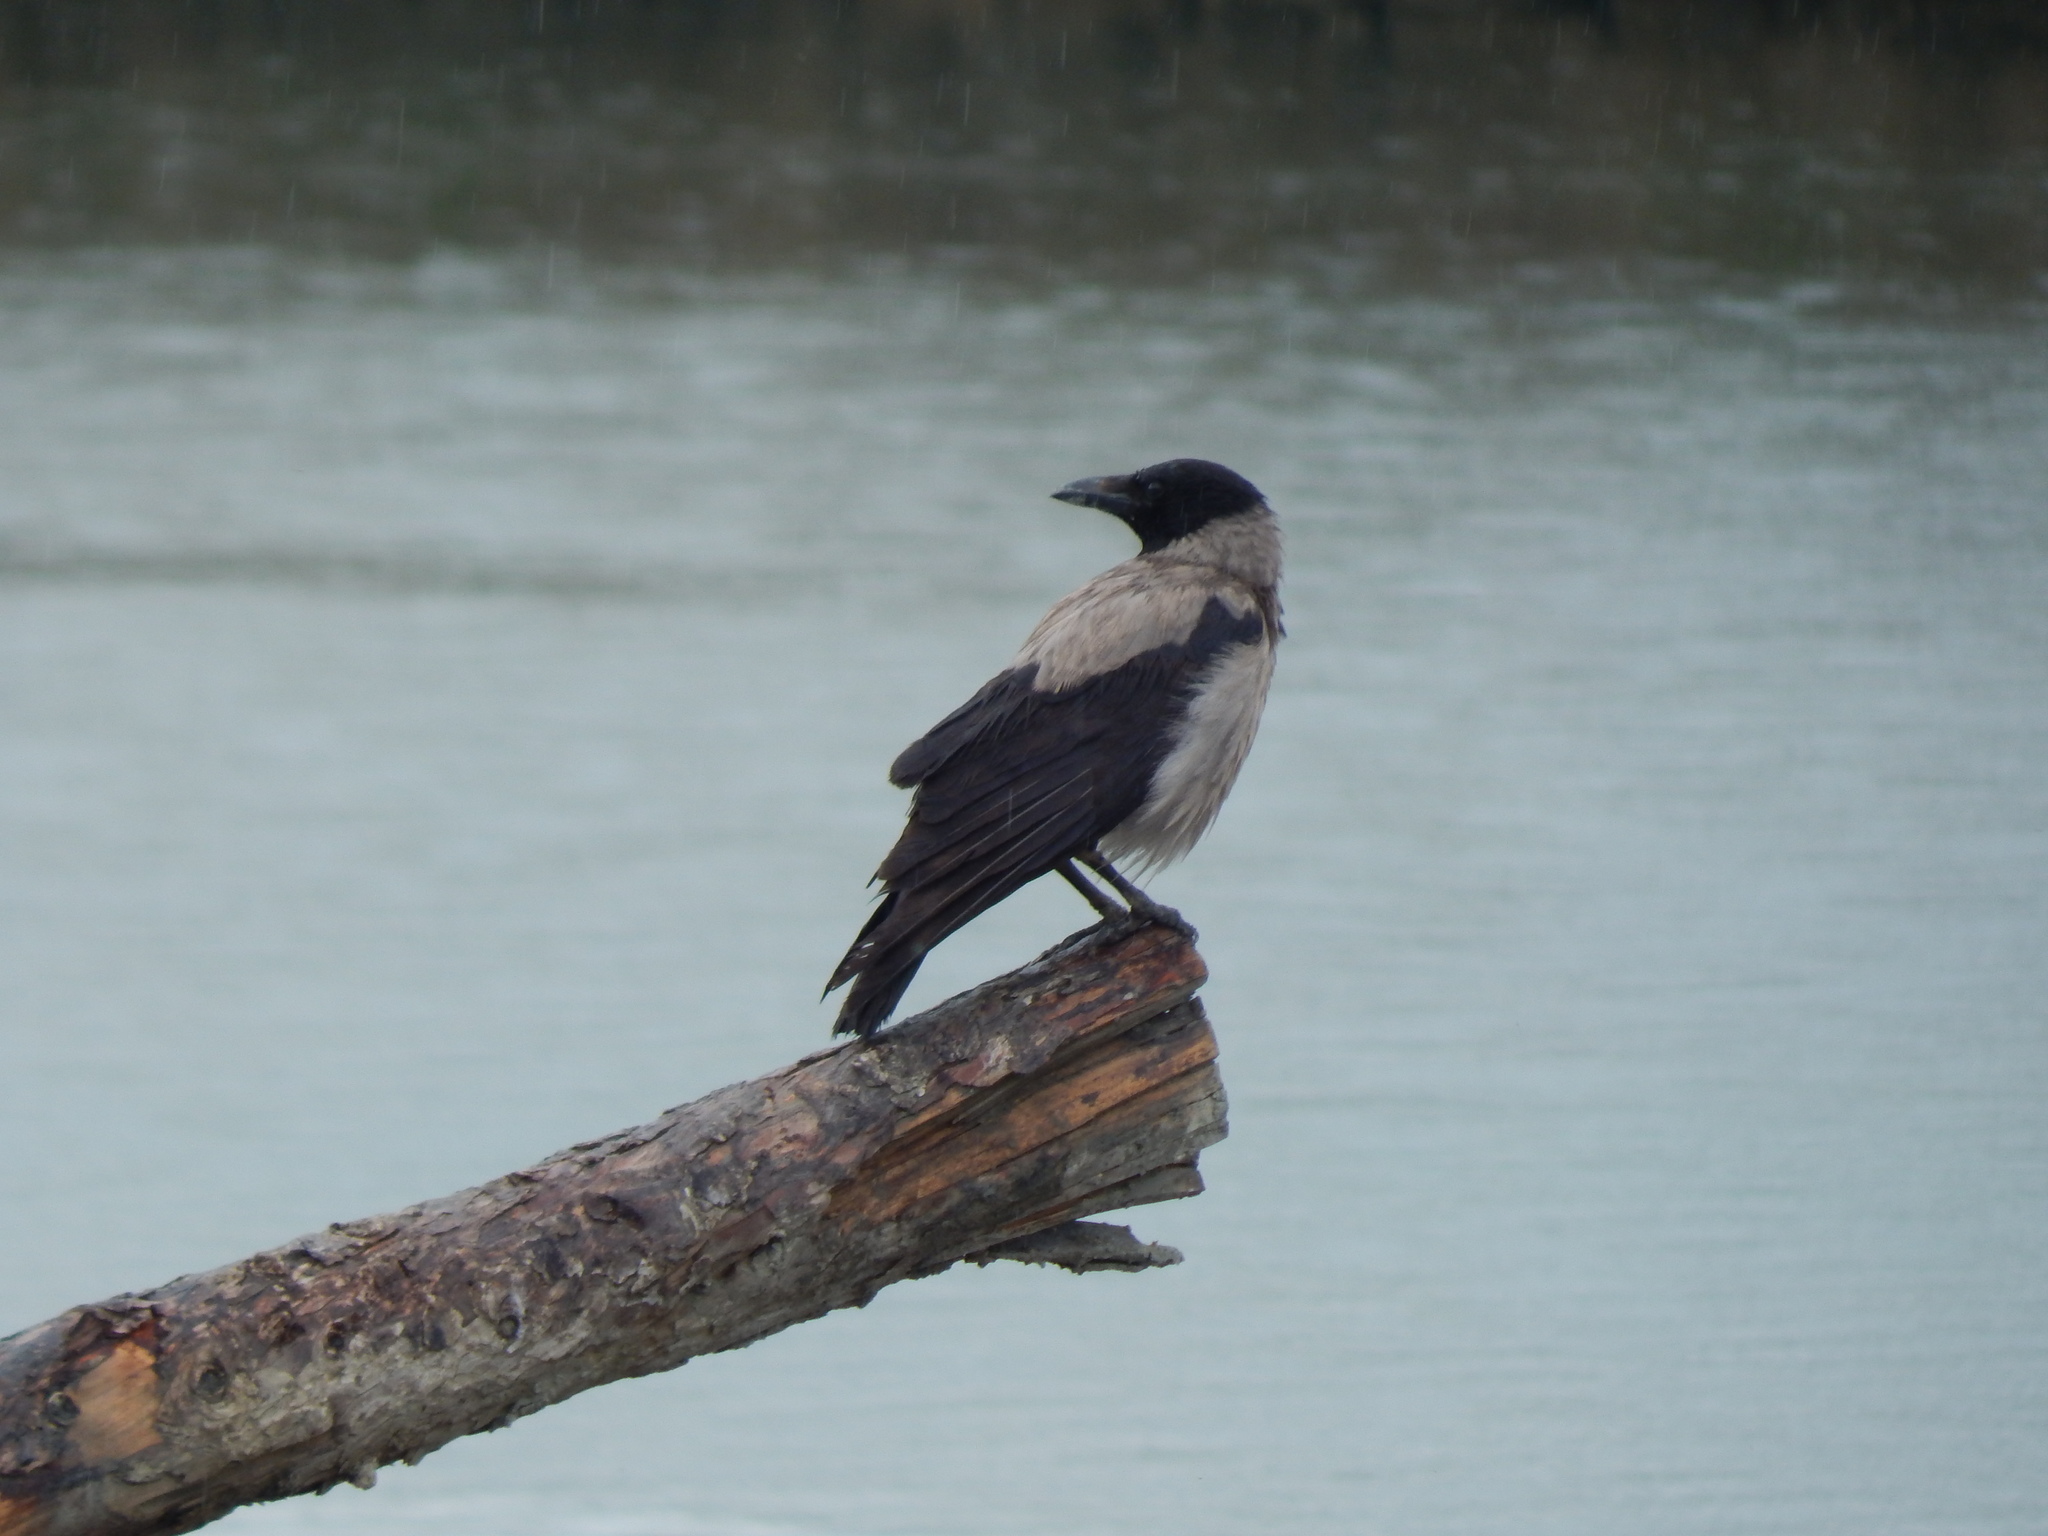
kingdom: Animalia
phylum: Chordata
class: Aves
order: Passeriformes
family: Corvidae
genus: Corvus
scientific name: Corvus cornix
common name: Hooded crow
